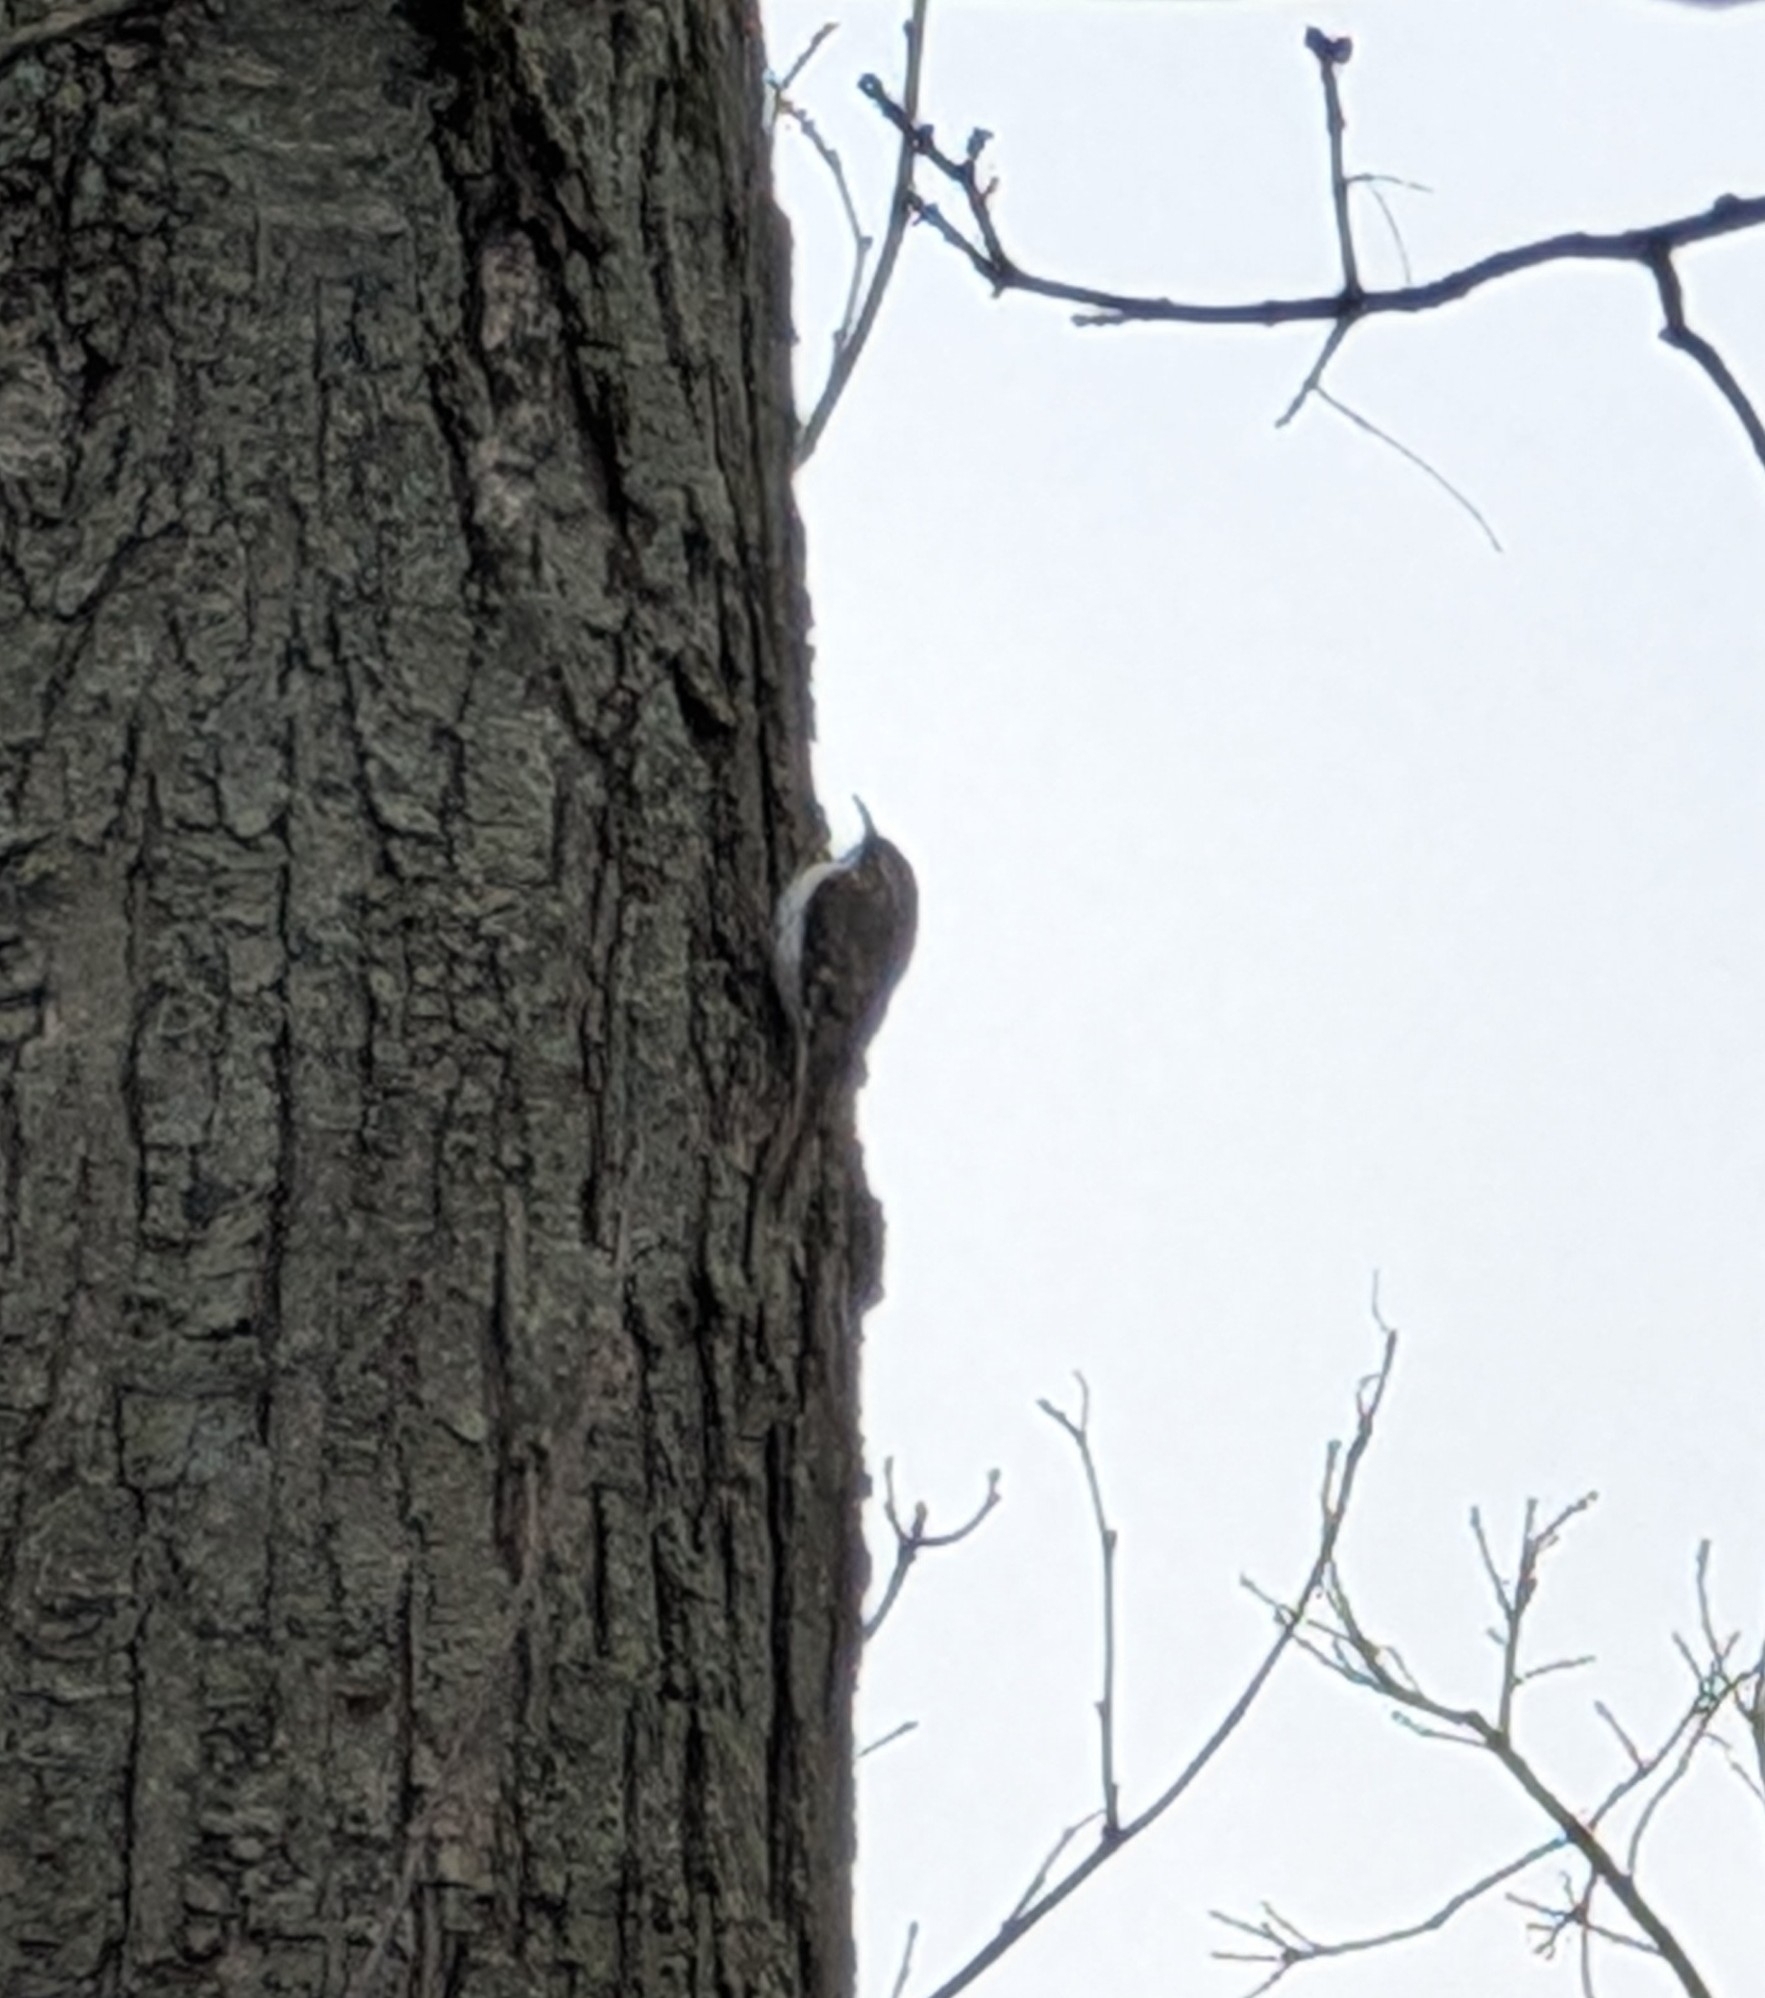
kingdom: Animalia
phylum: Chordata
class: Aves
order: Passeriformes
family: Certhiidae
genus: Certhia
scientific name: Certhia americana
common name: Brown creeper
